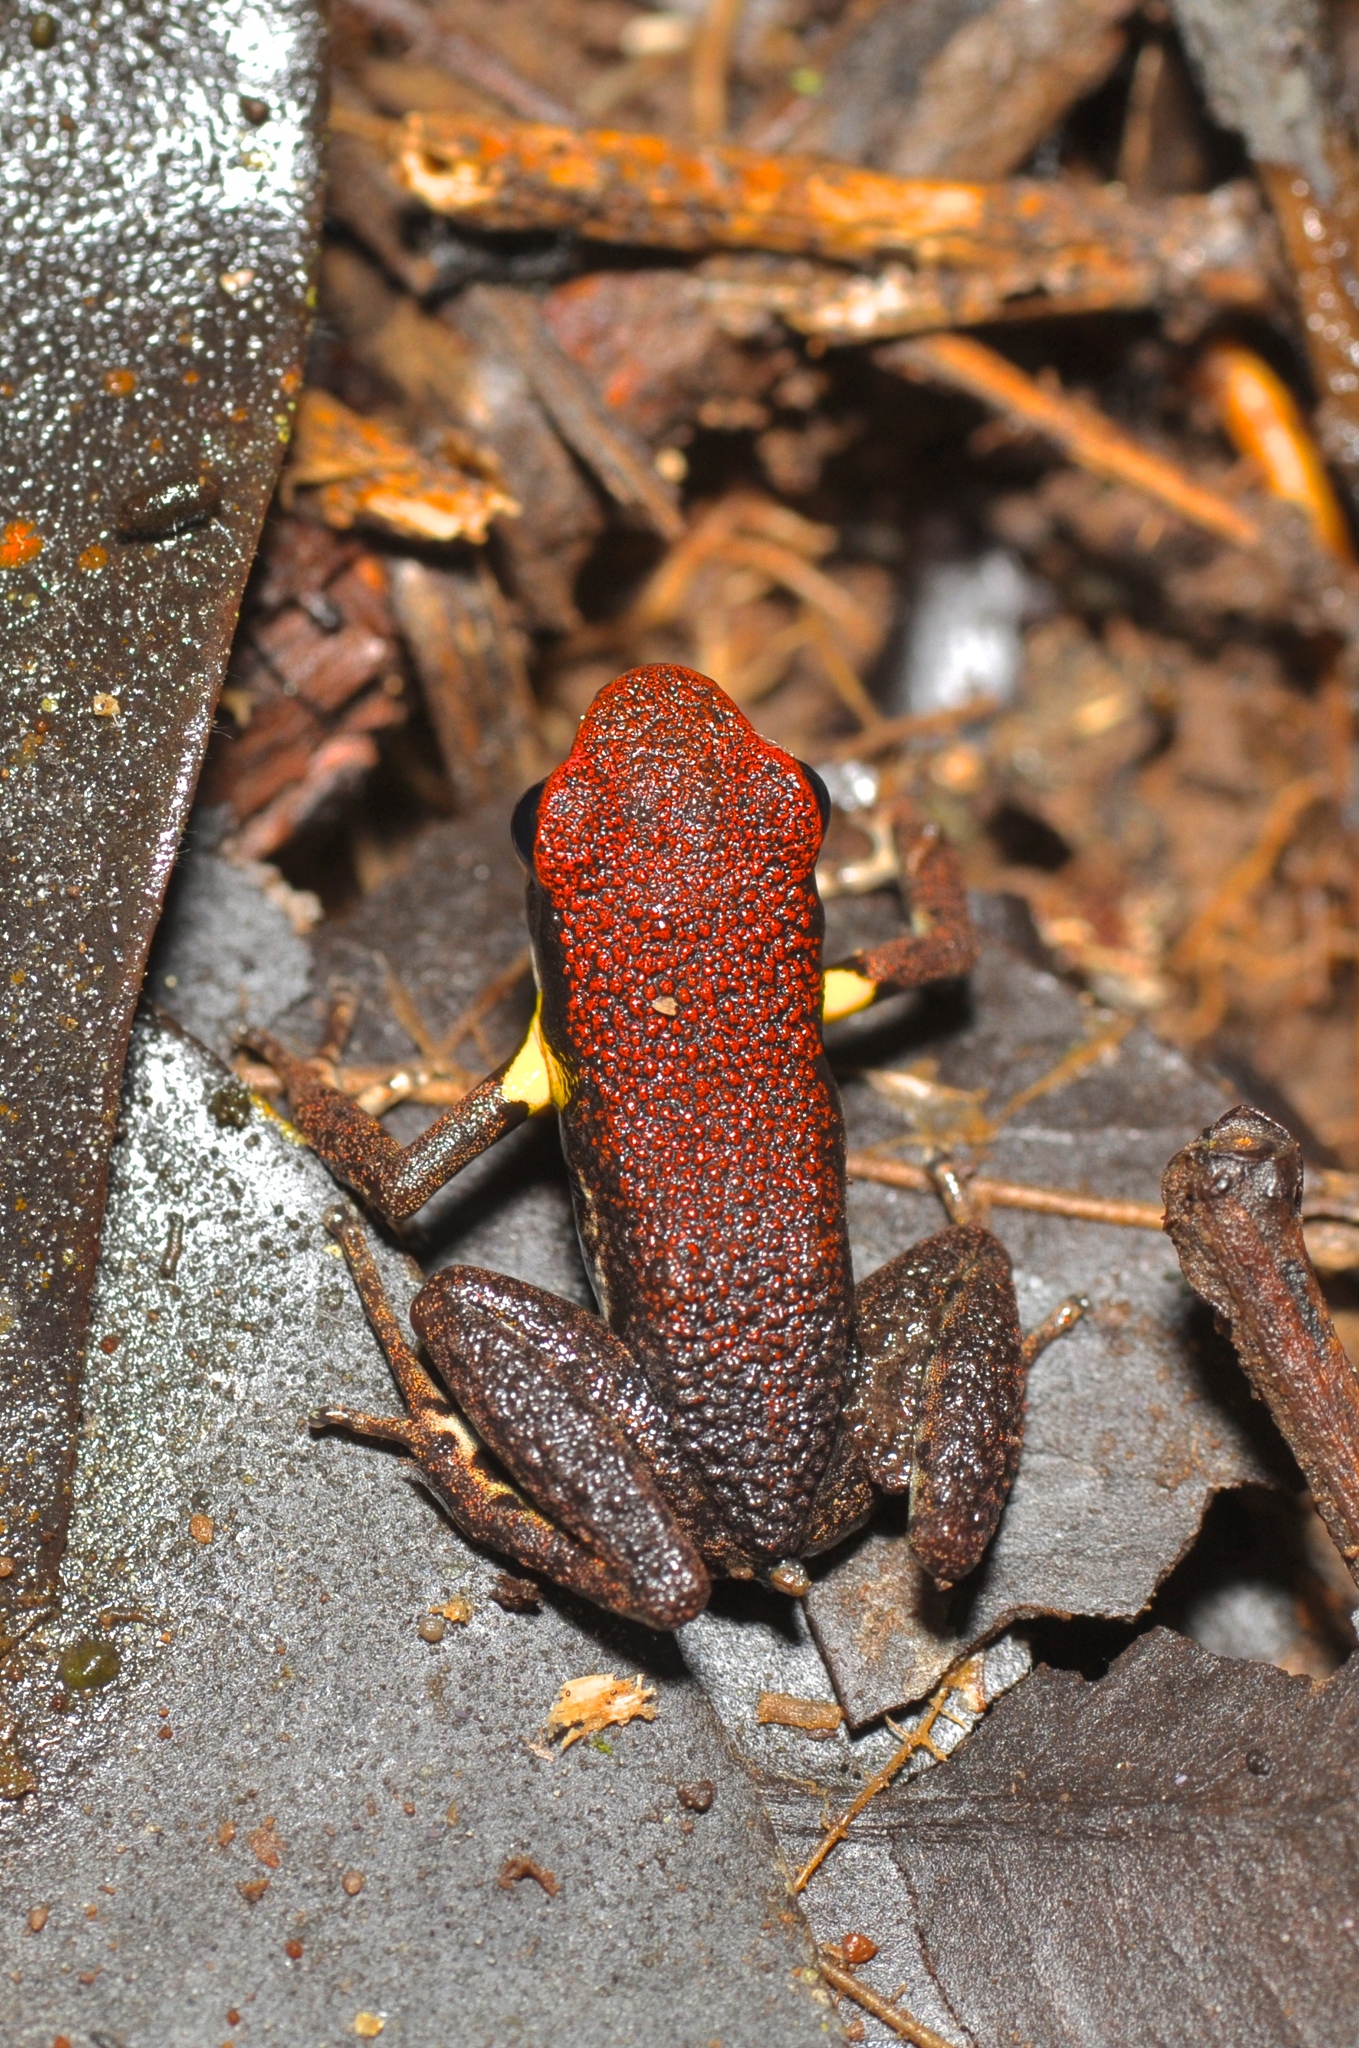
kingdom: Animalia
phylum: Chordata
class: Amphibia
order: Anura
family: Dendrobatidae
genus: Ameerega
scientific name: Ameerega bilinguis
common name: Ecuadorean poison frog
